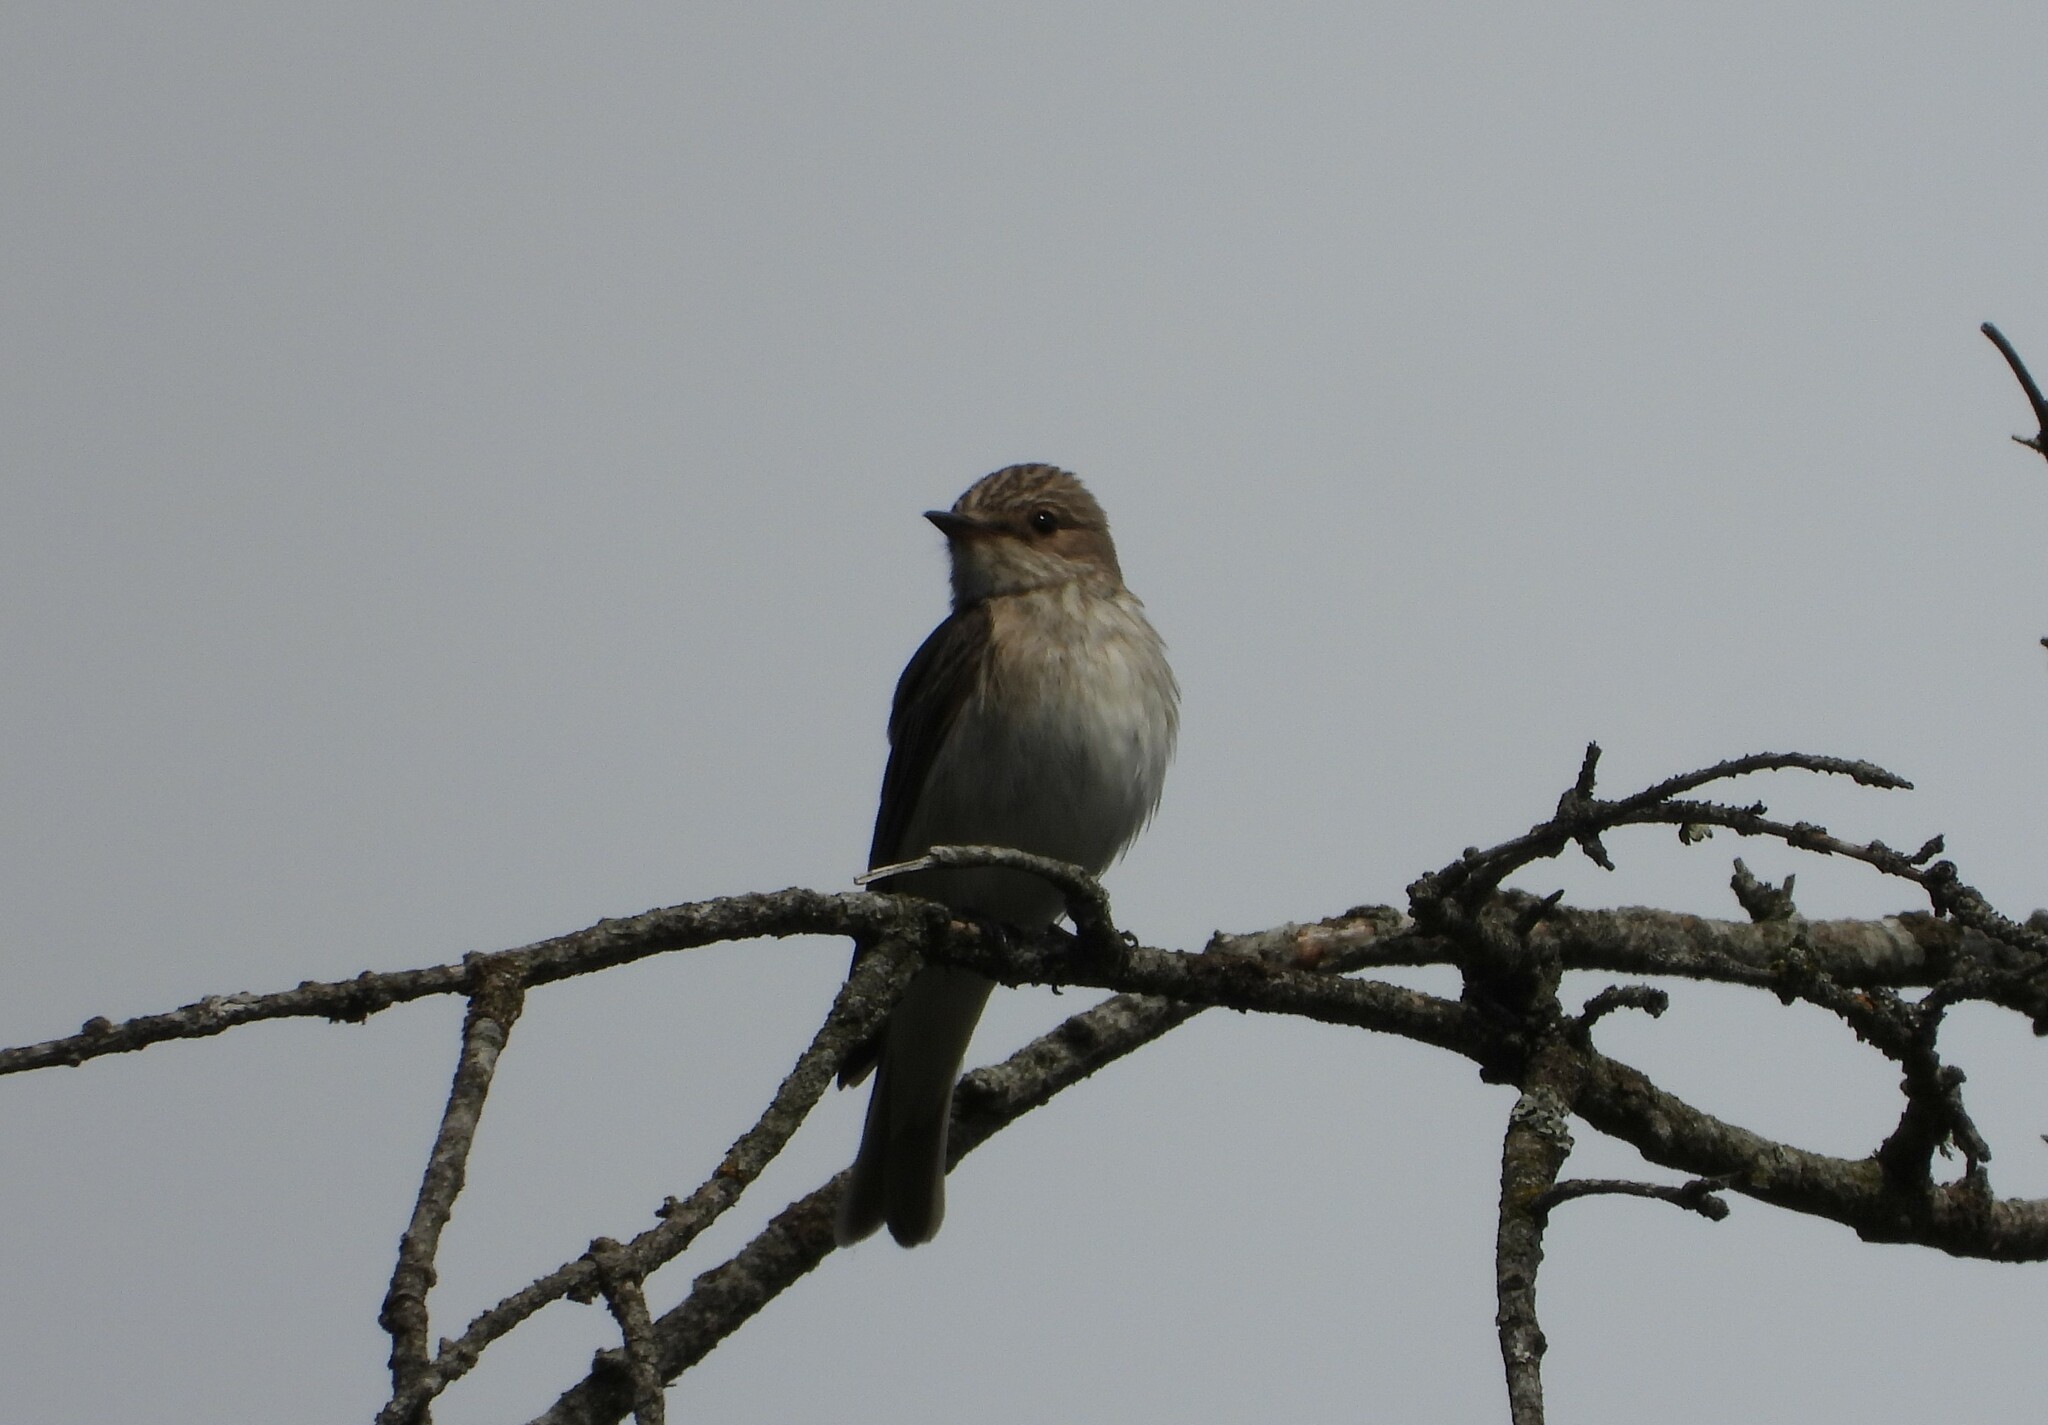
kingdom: Animalia
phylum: Chordata
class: Aves
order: Passeriformes
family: Muscicapidae
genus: Muscicapa
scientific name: Muscicapa striata
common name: Spotted flycatcher
